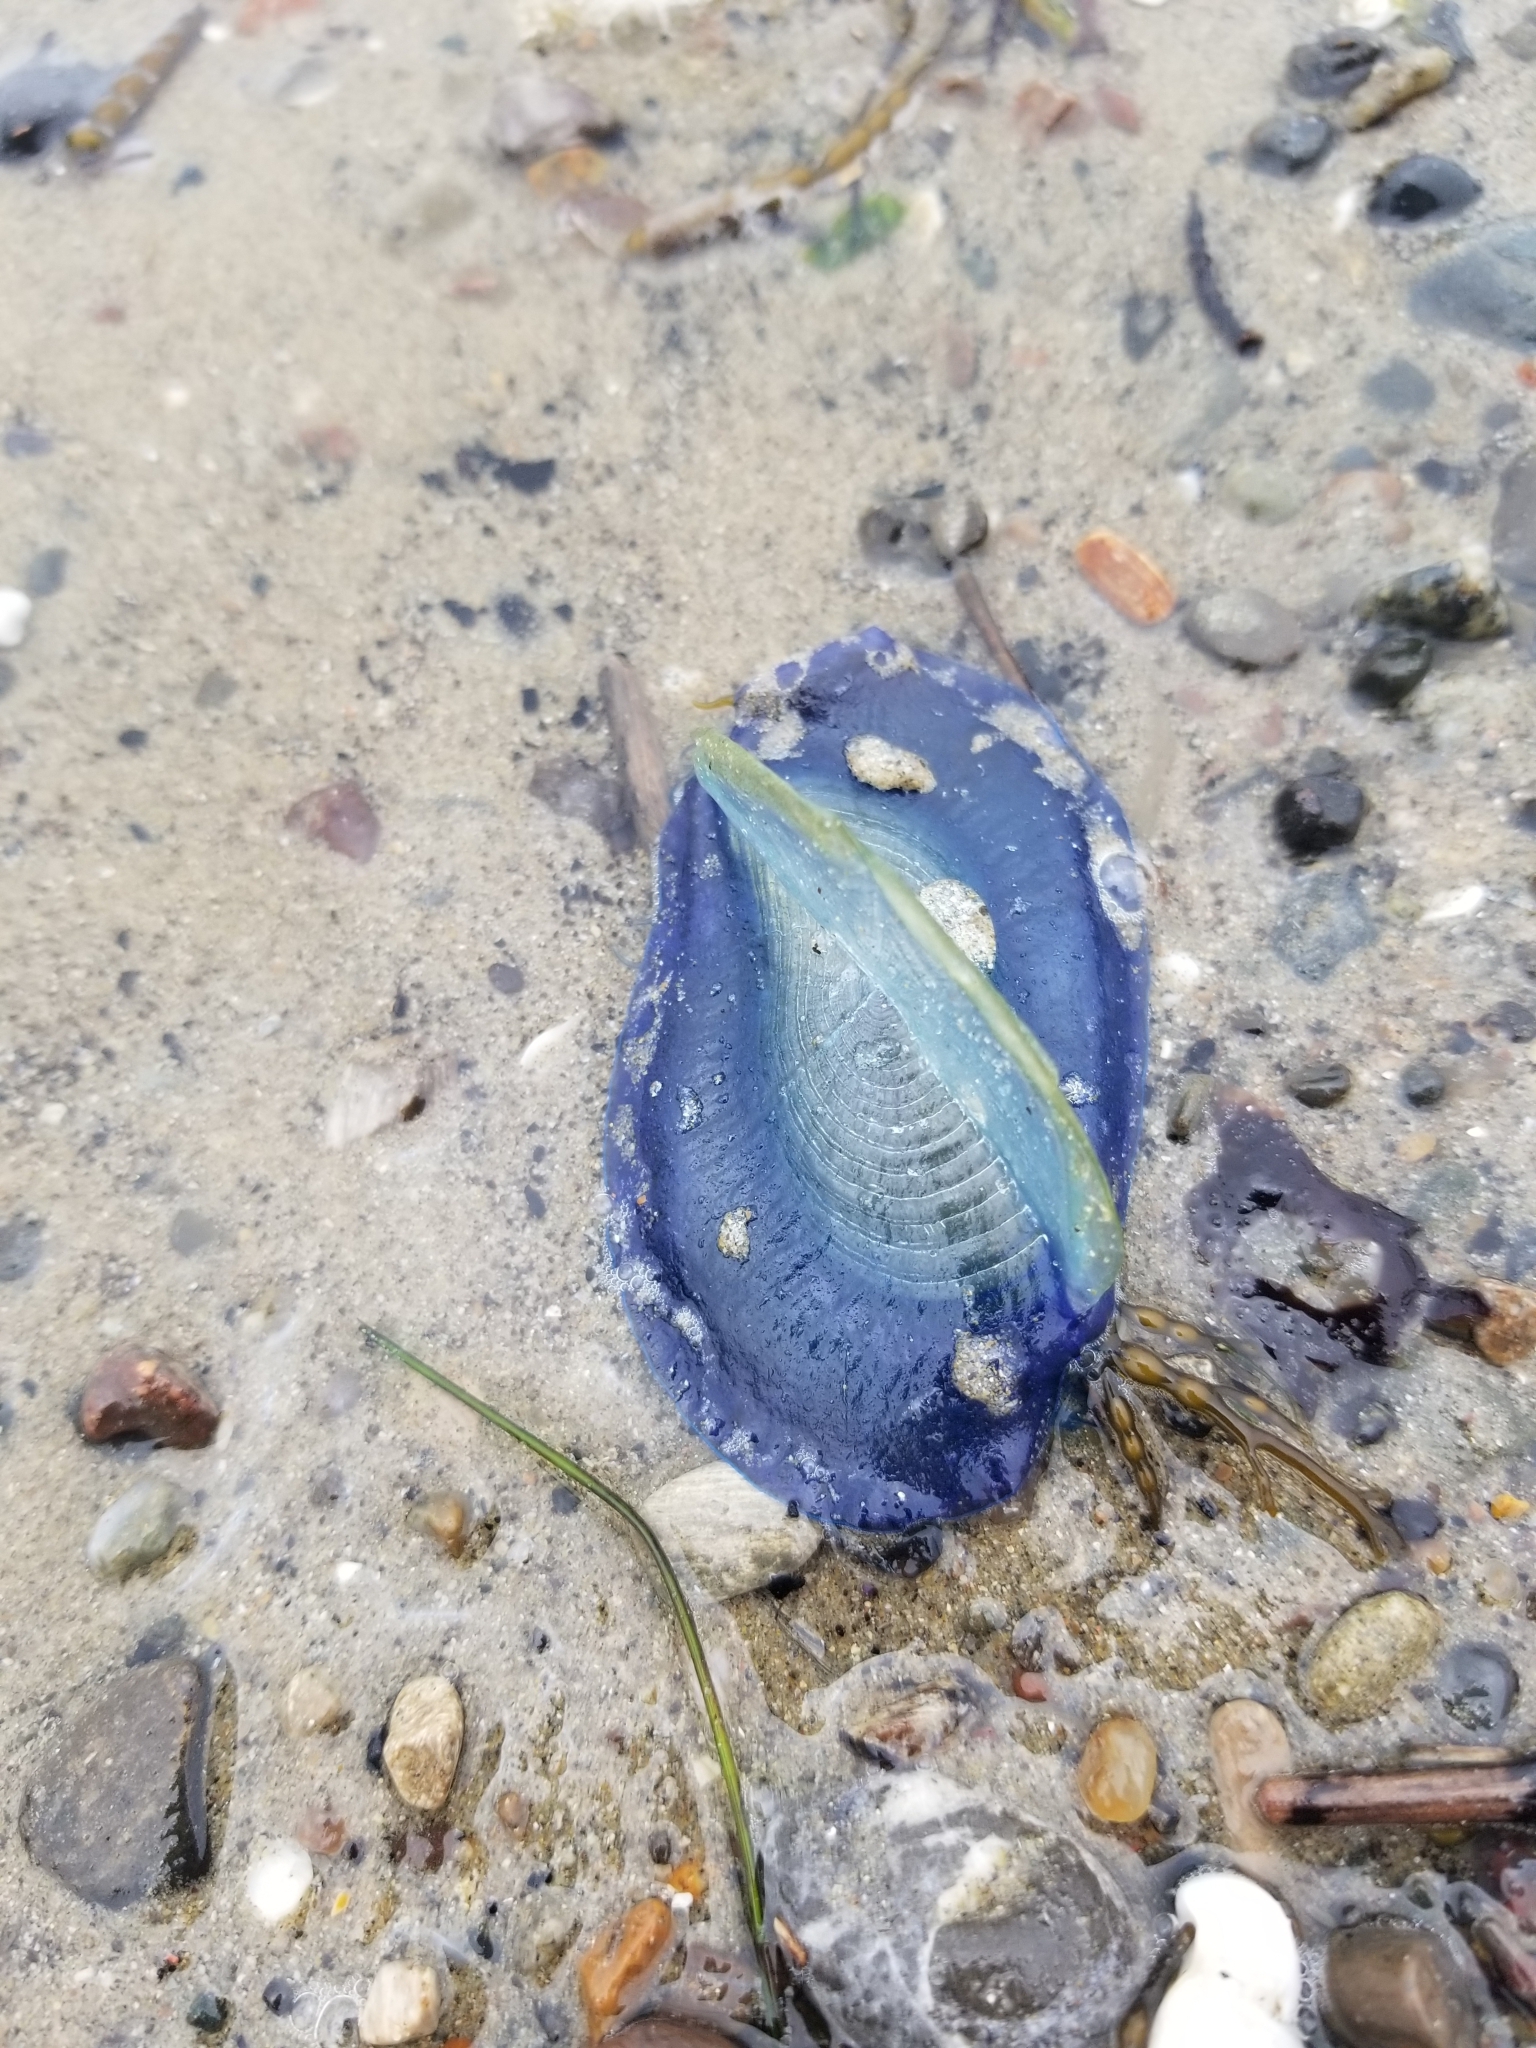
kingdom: Animalia
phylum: Cnidaria
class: Hydrozoa
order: Anthoathecata
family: Porpitidae
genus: Velella
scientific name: Velella velella
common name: By-the-wind-sailor
